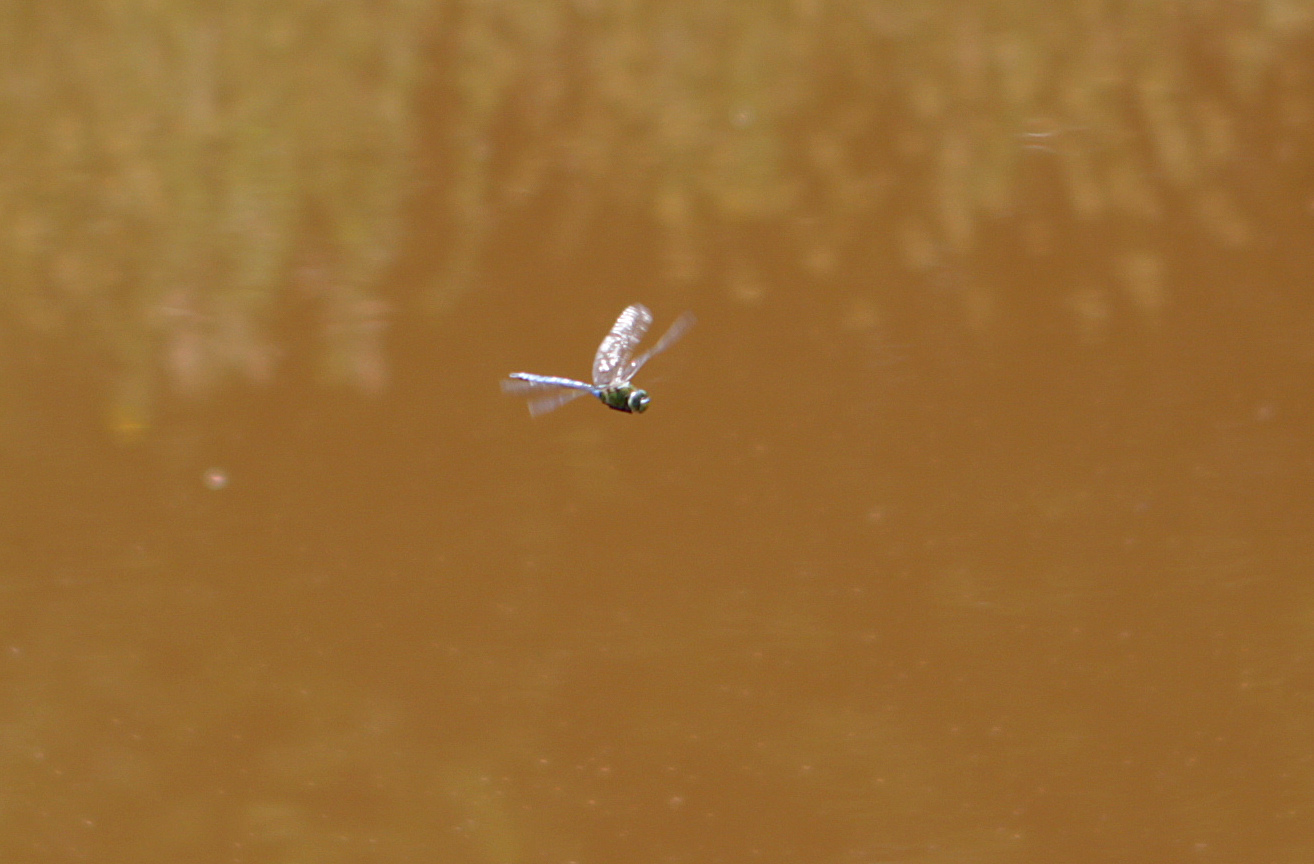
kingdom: Animalia
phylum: Arthropoda
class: Insecta
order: Odonata
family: Aeshnidae
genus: Anax
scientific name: Anax imperator
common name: Emperor dragonfly
